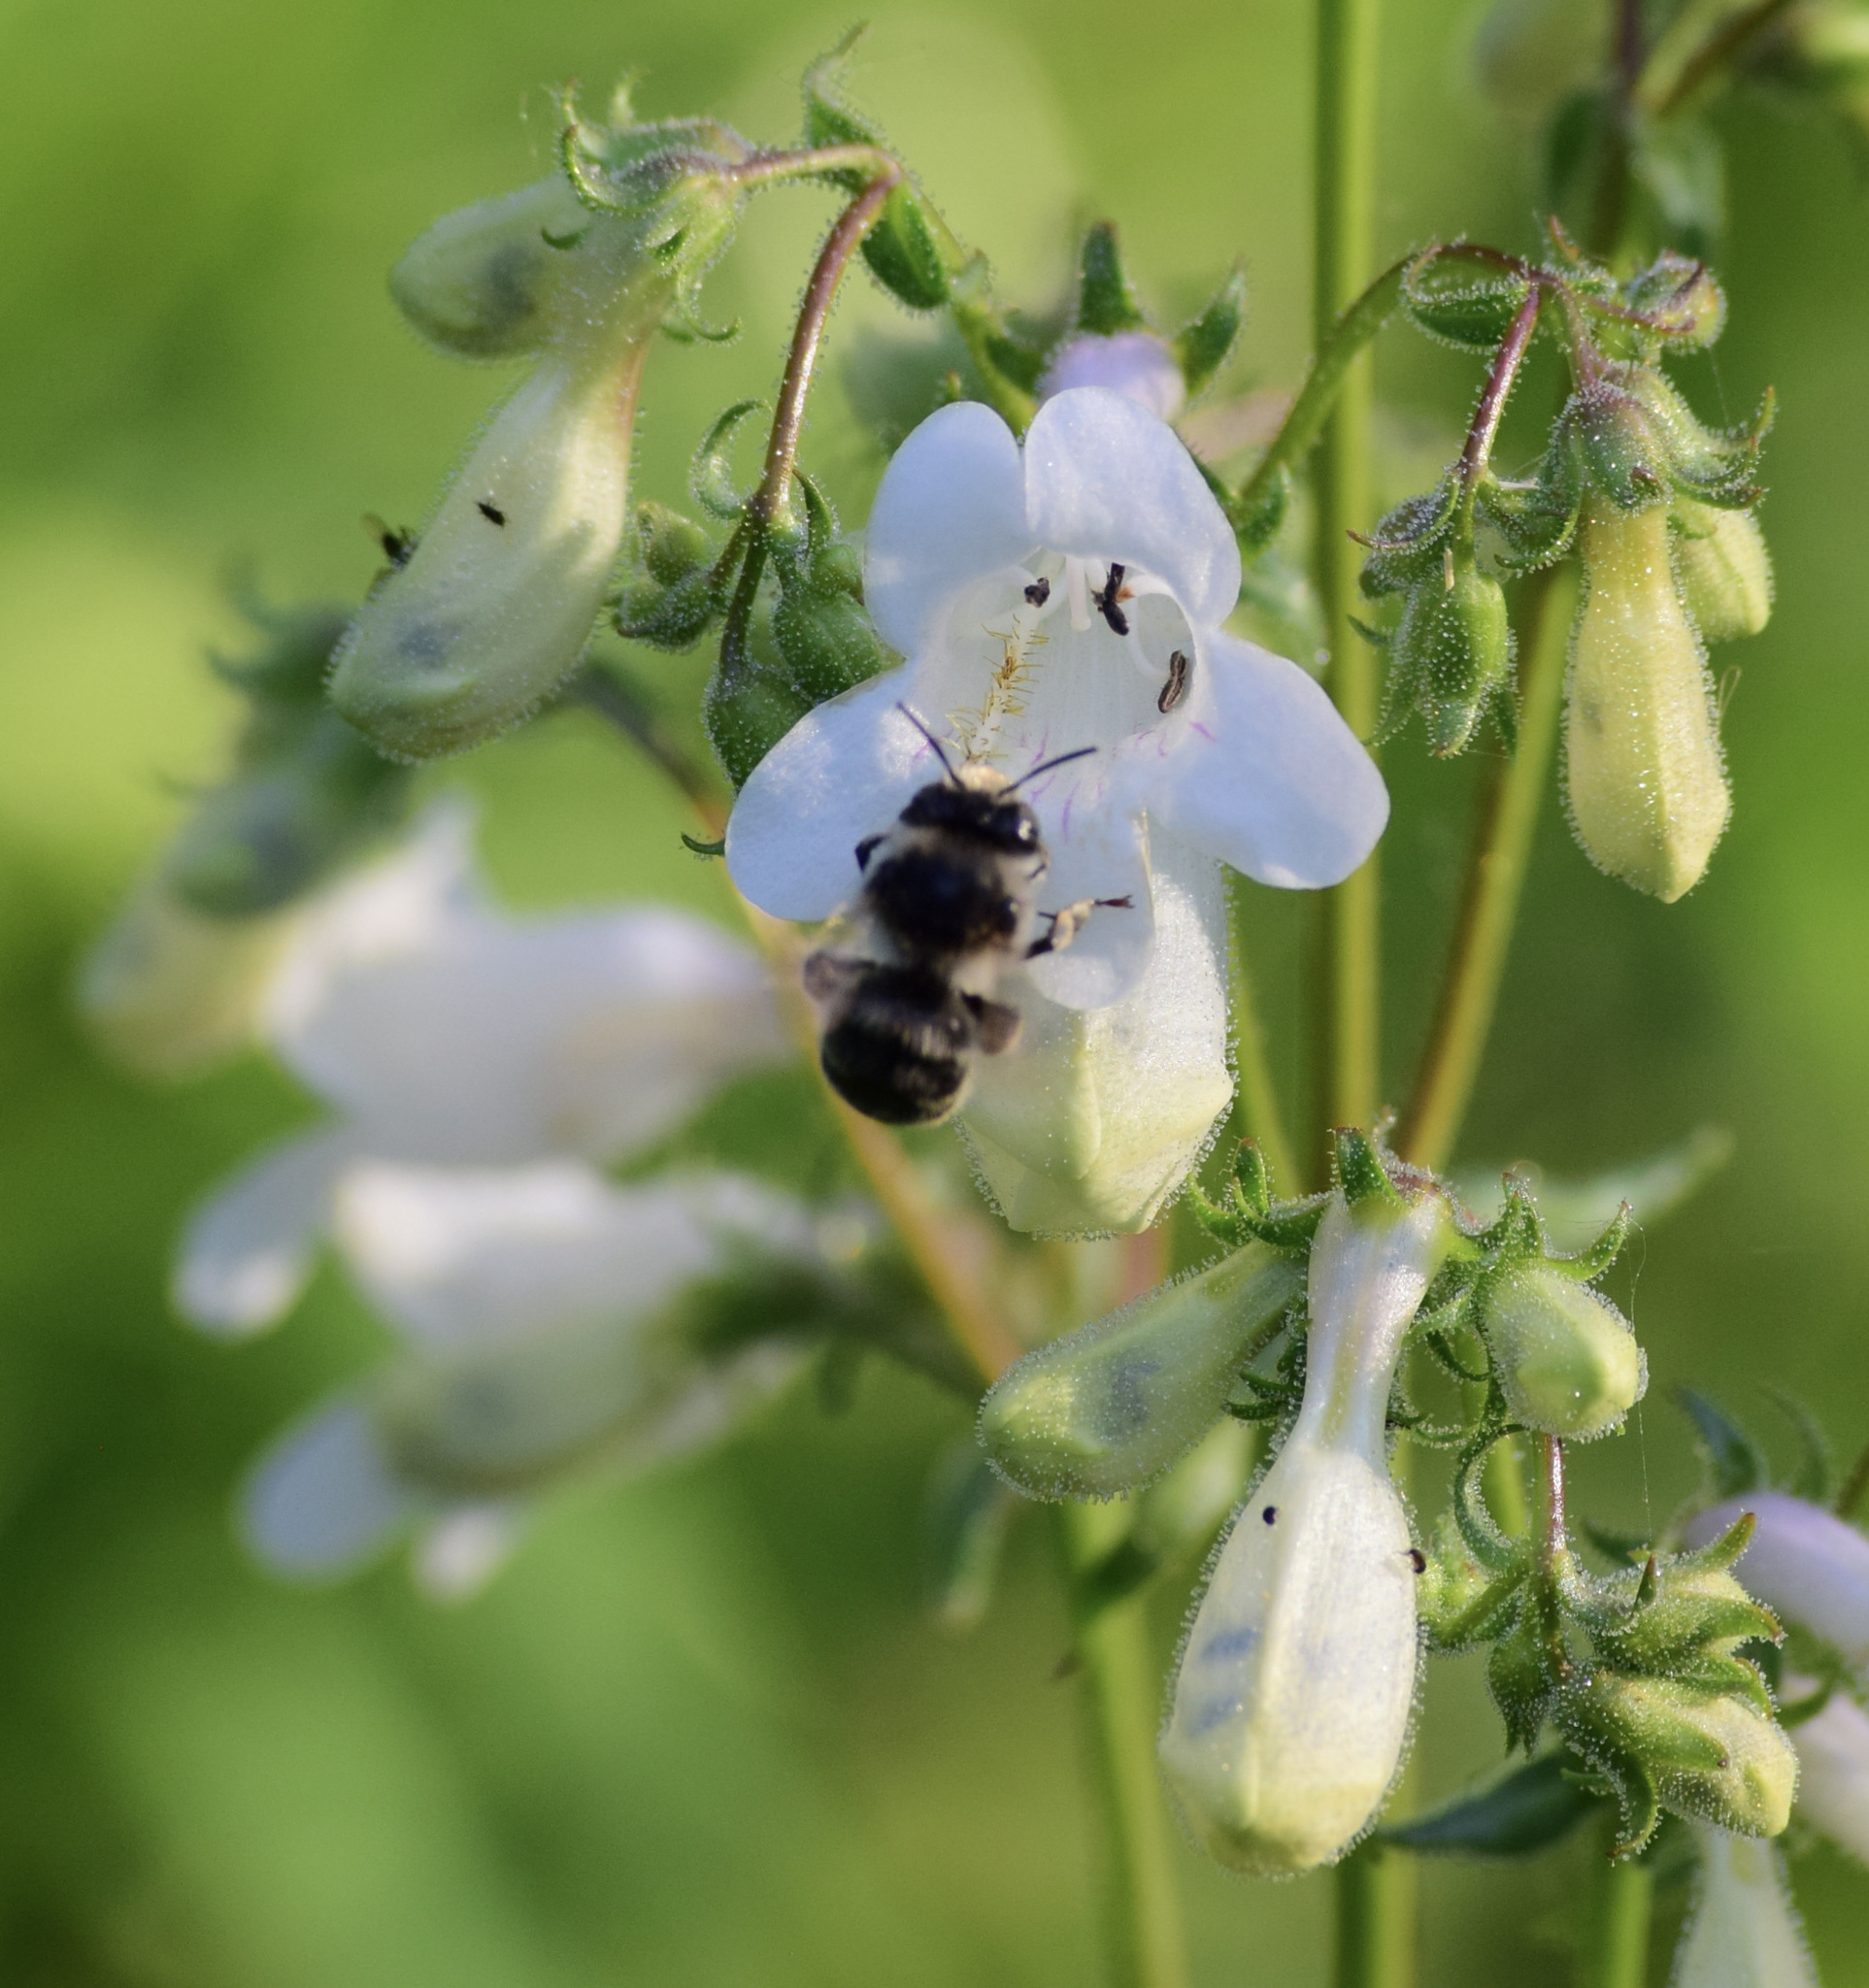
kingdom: Animalia
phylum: Arthropoda
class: Insecta
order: Hymenoptera
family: Apidae
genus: Anthophora
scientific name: Anthophora terminalis
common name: Orange-tipped wood-digger bee
